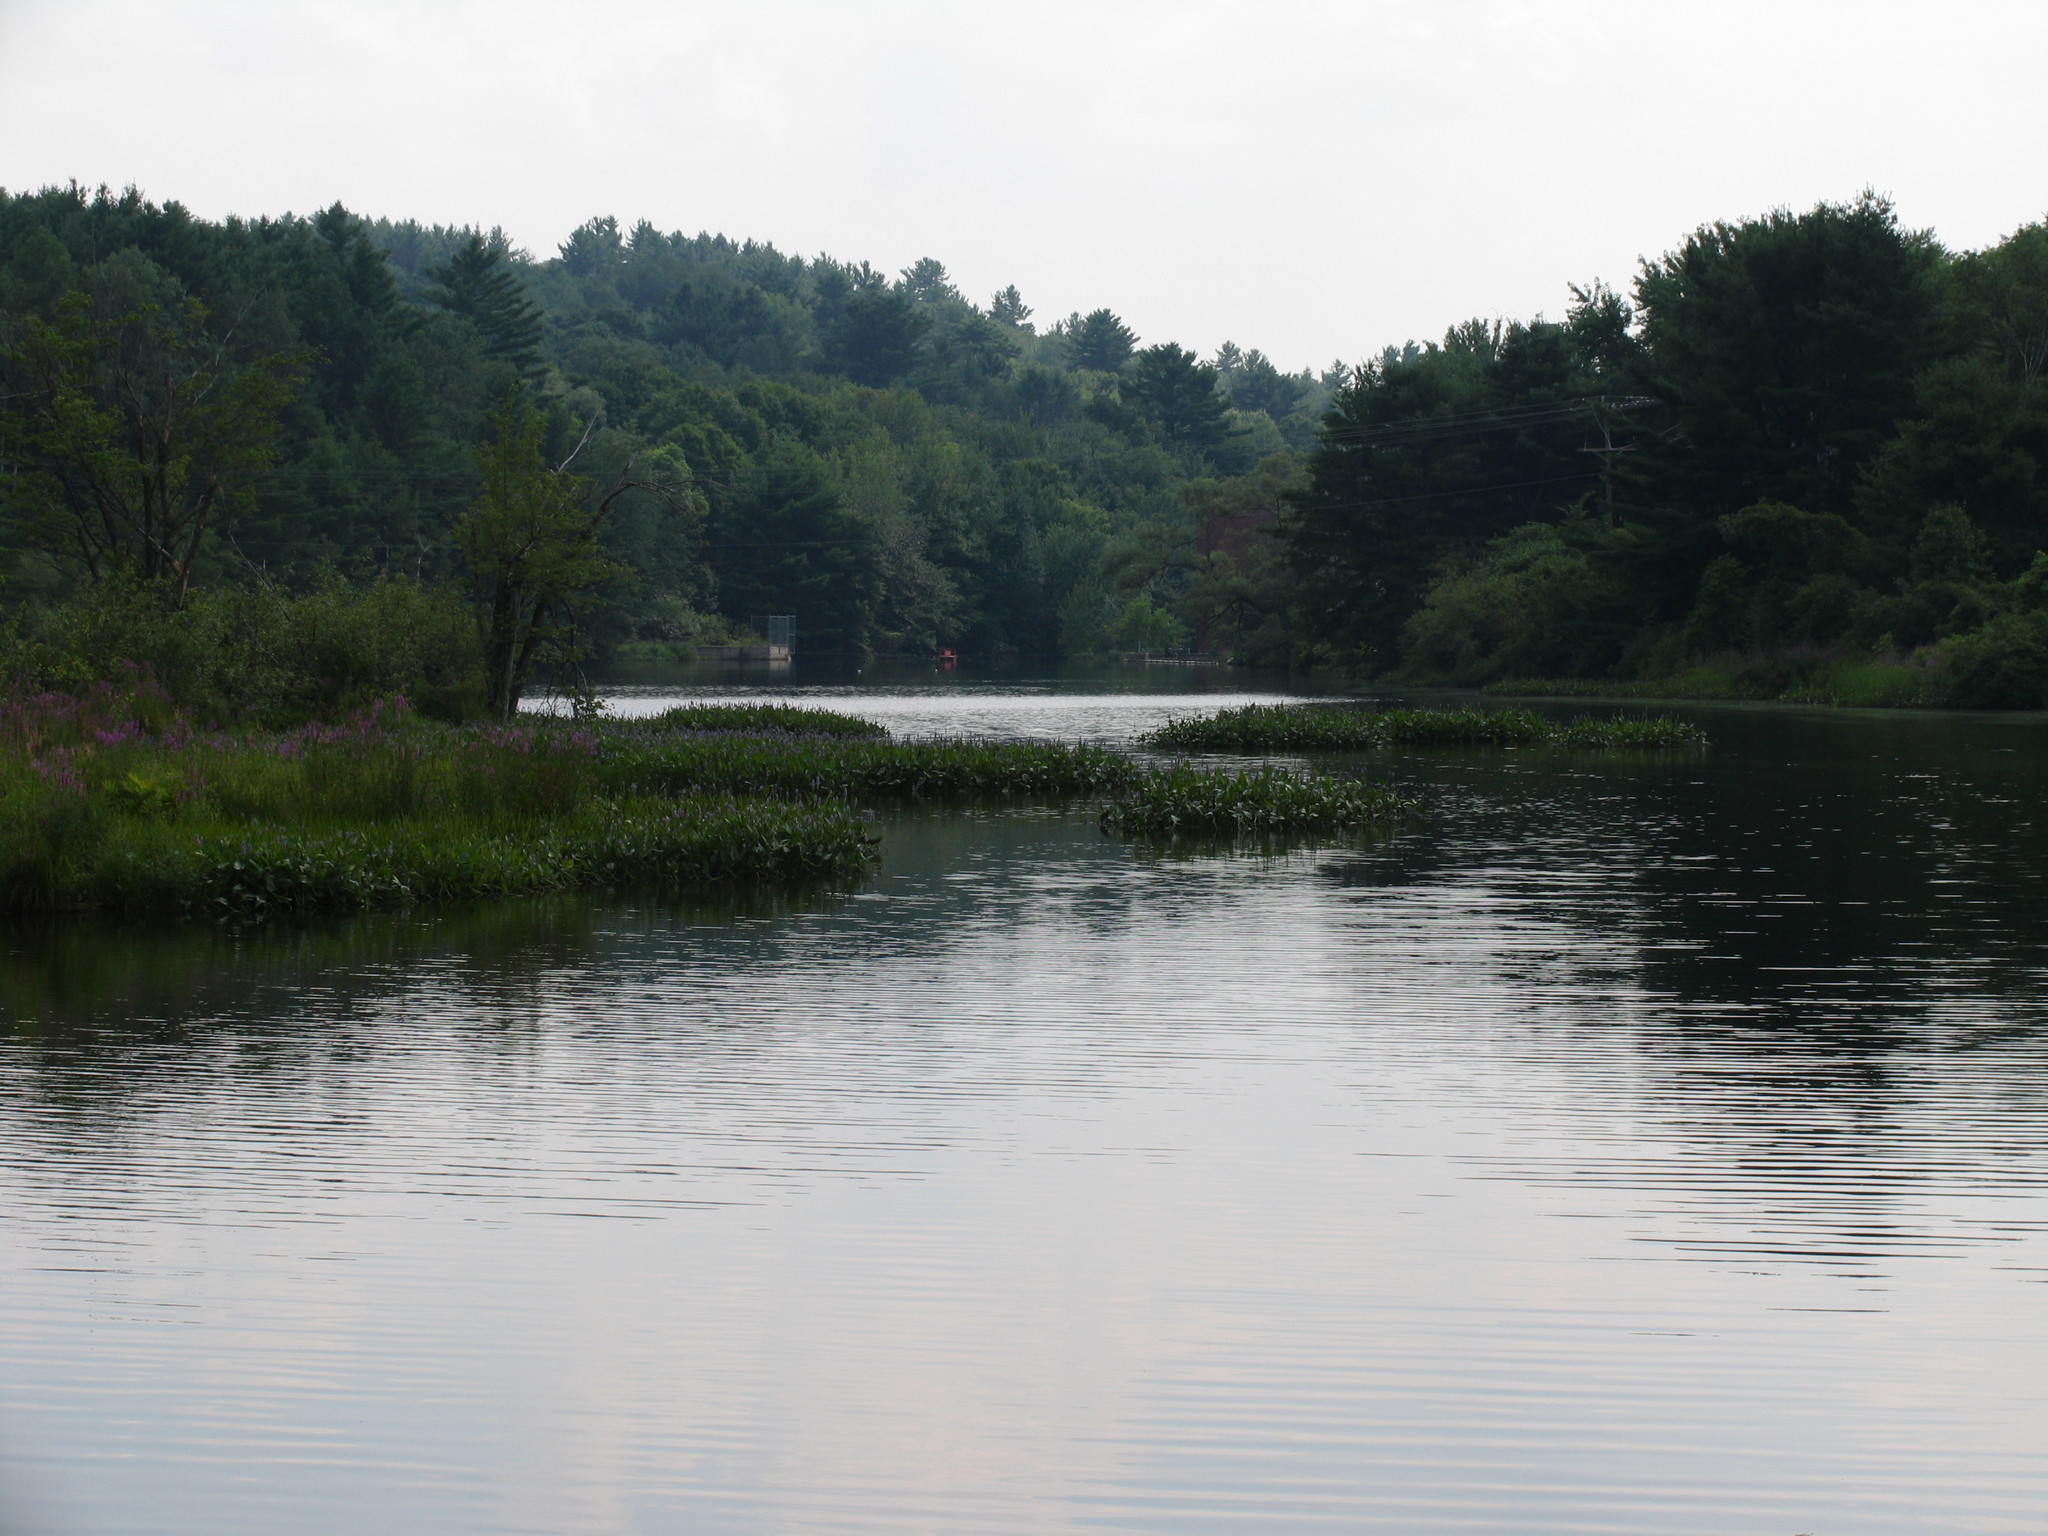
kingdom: Plantae
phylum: Tracheophyta
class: Pinopsida
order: Pinales
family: Pinaceae
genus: Pinus
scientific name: Pinus strobus
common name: Weymouth pine
